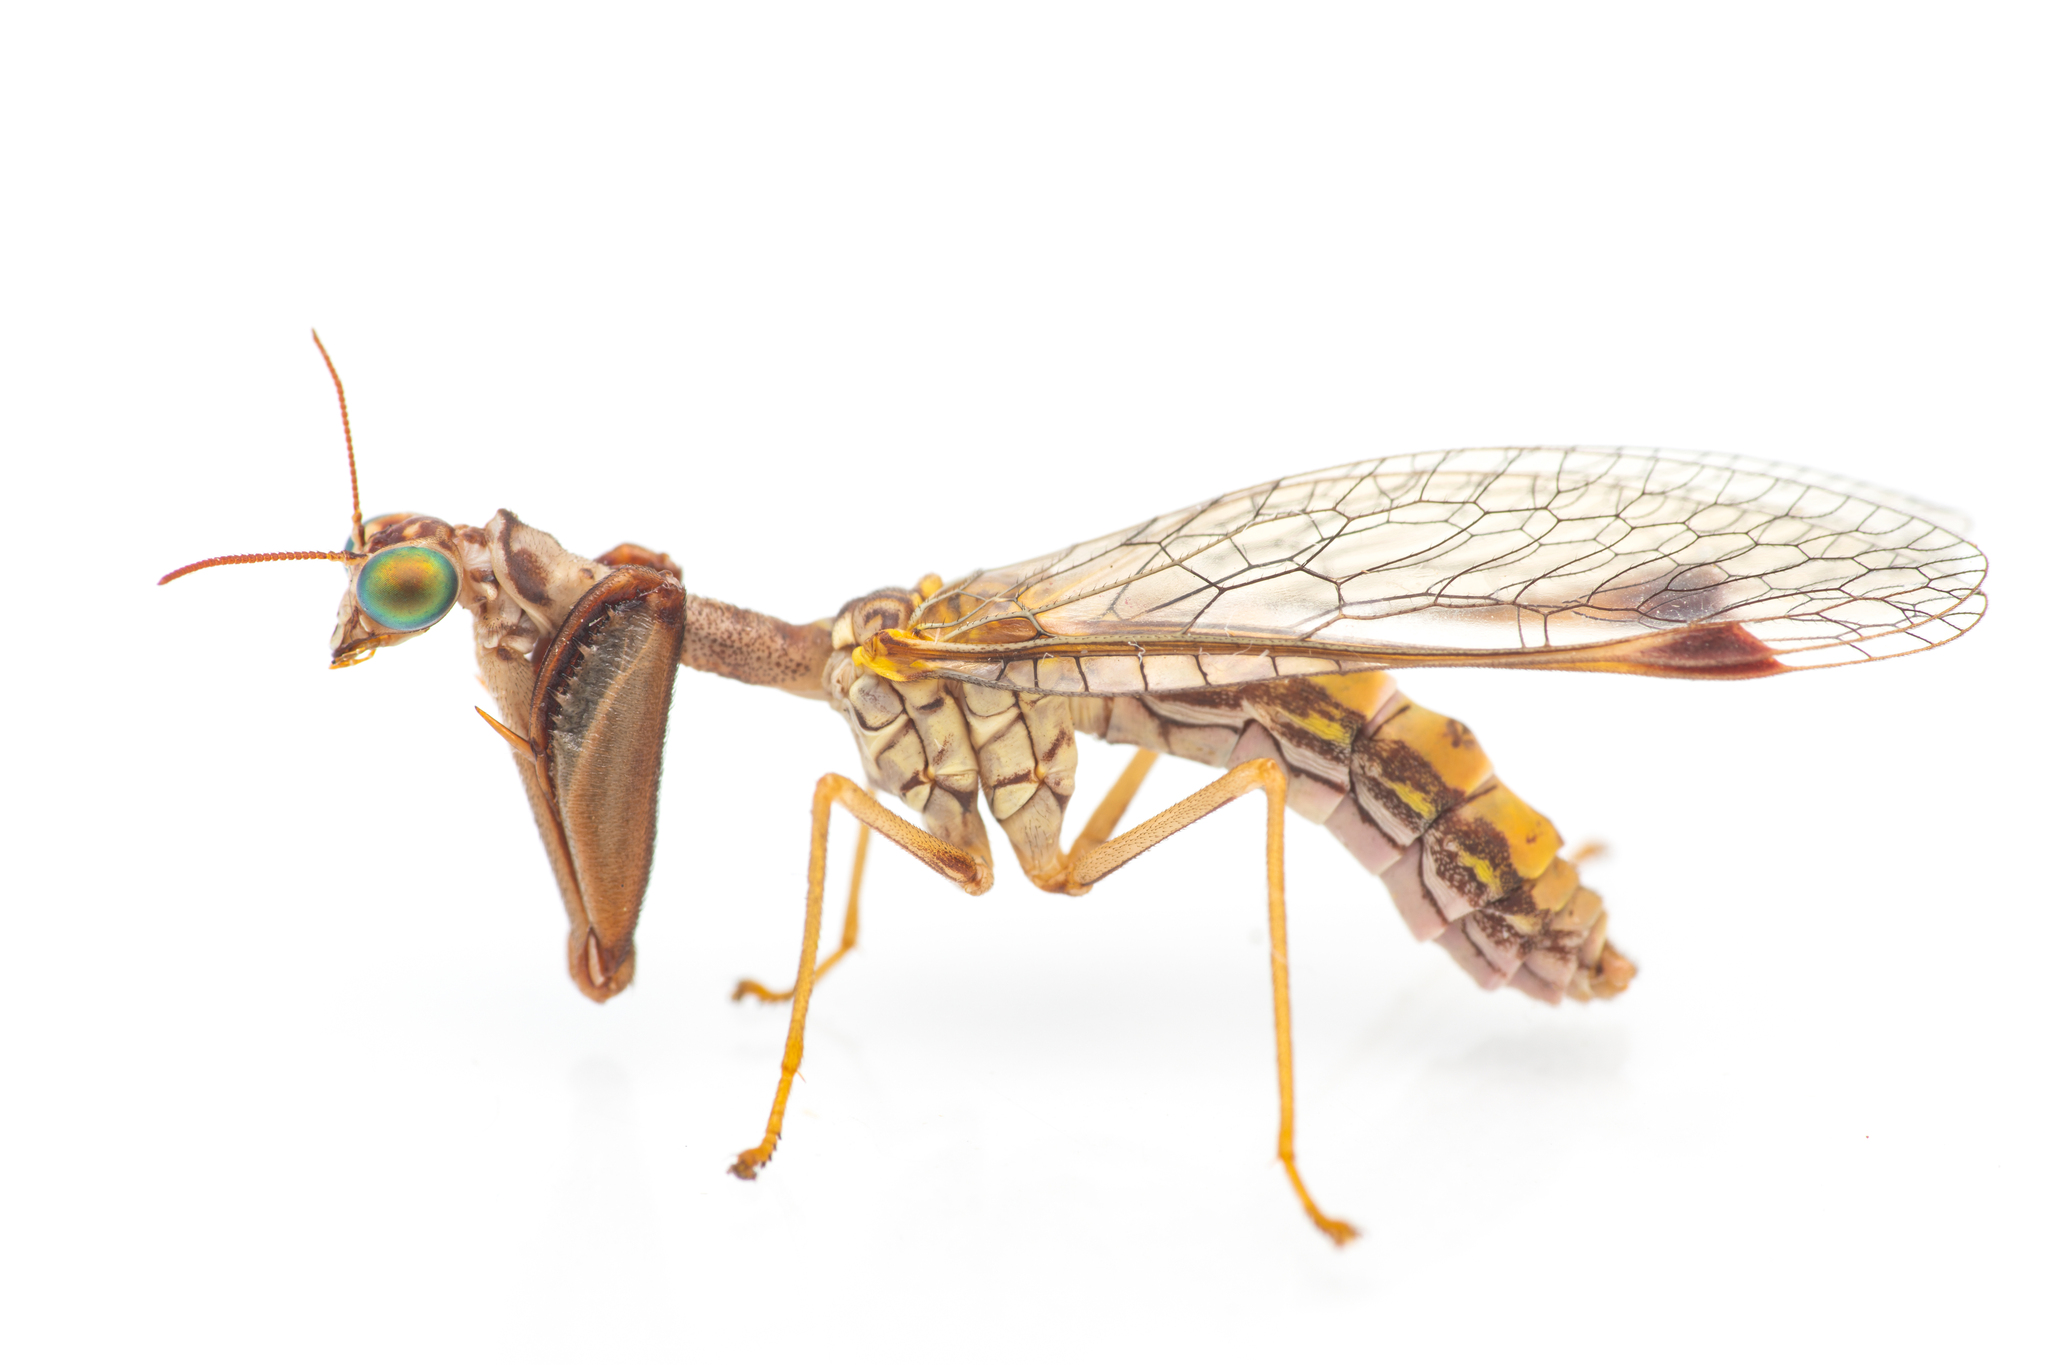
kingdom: Animalia
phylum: Arthropoda
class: Insecta
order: Neuroptera
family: Mantispidae
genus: Mantispa
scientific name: Mantispa styriaca
